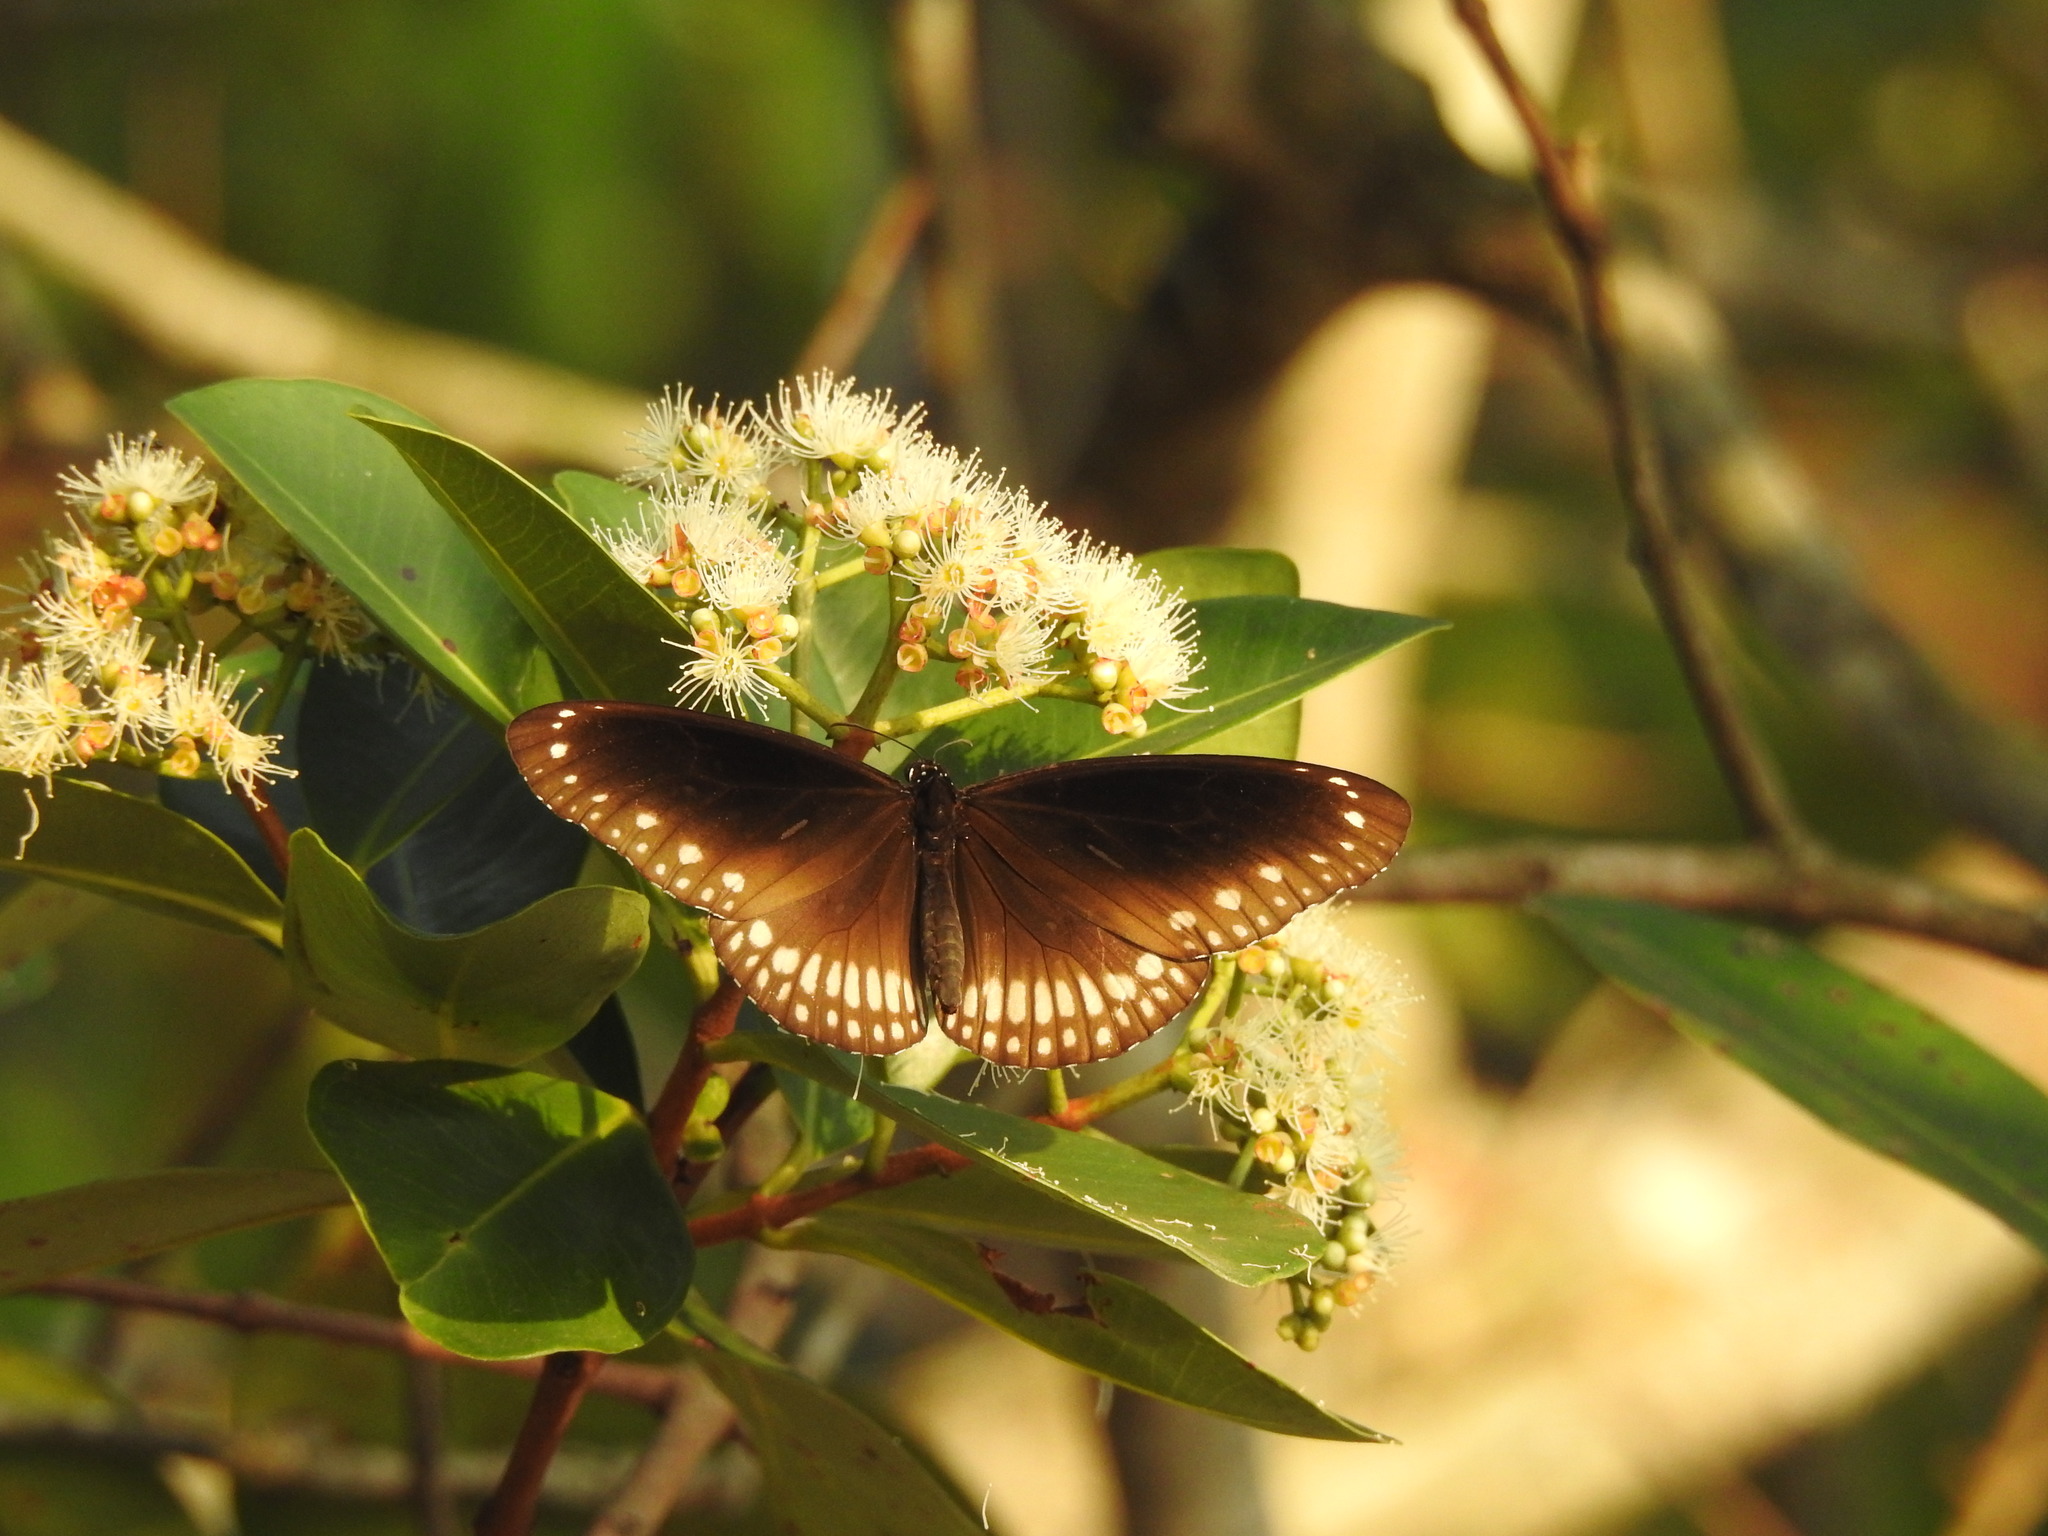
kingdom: Animalia
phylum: Arthropoda
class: Insecta
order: Lepidoptera
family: Nymphalidae
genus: Euploea
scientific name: Euploea core
